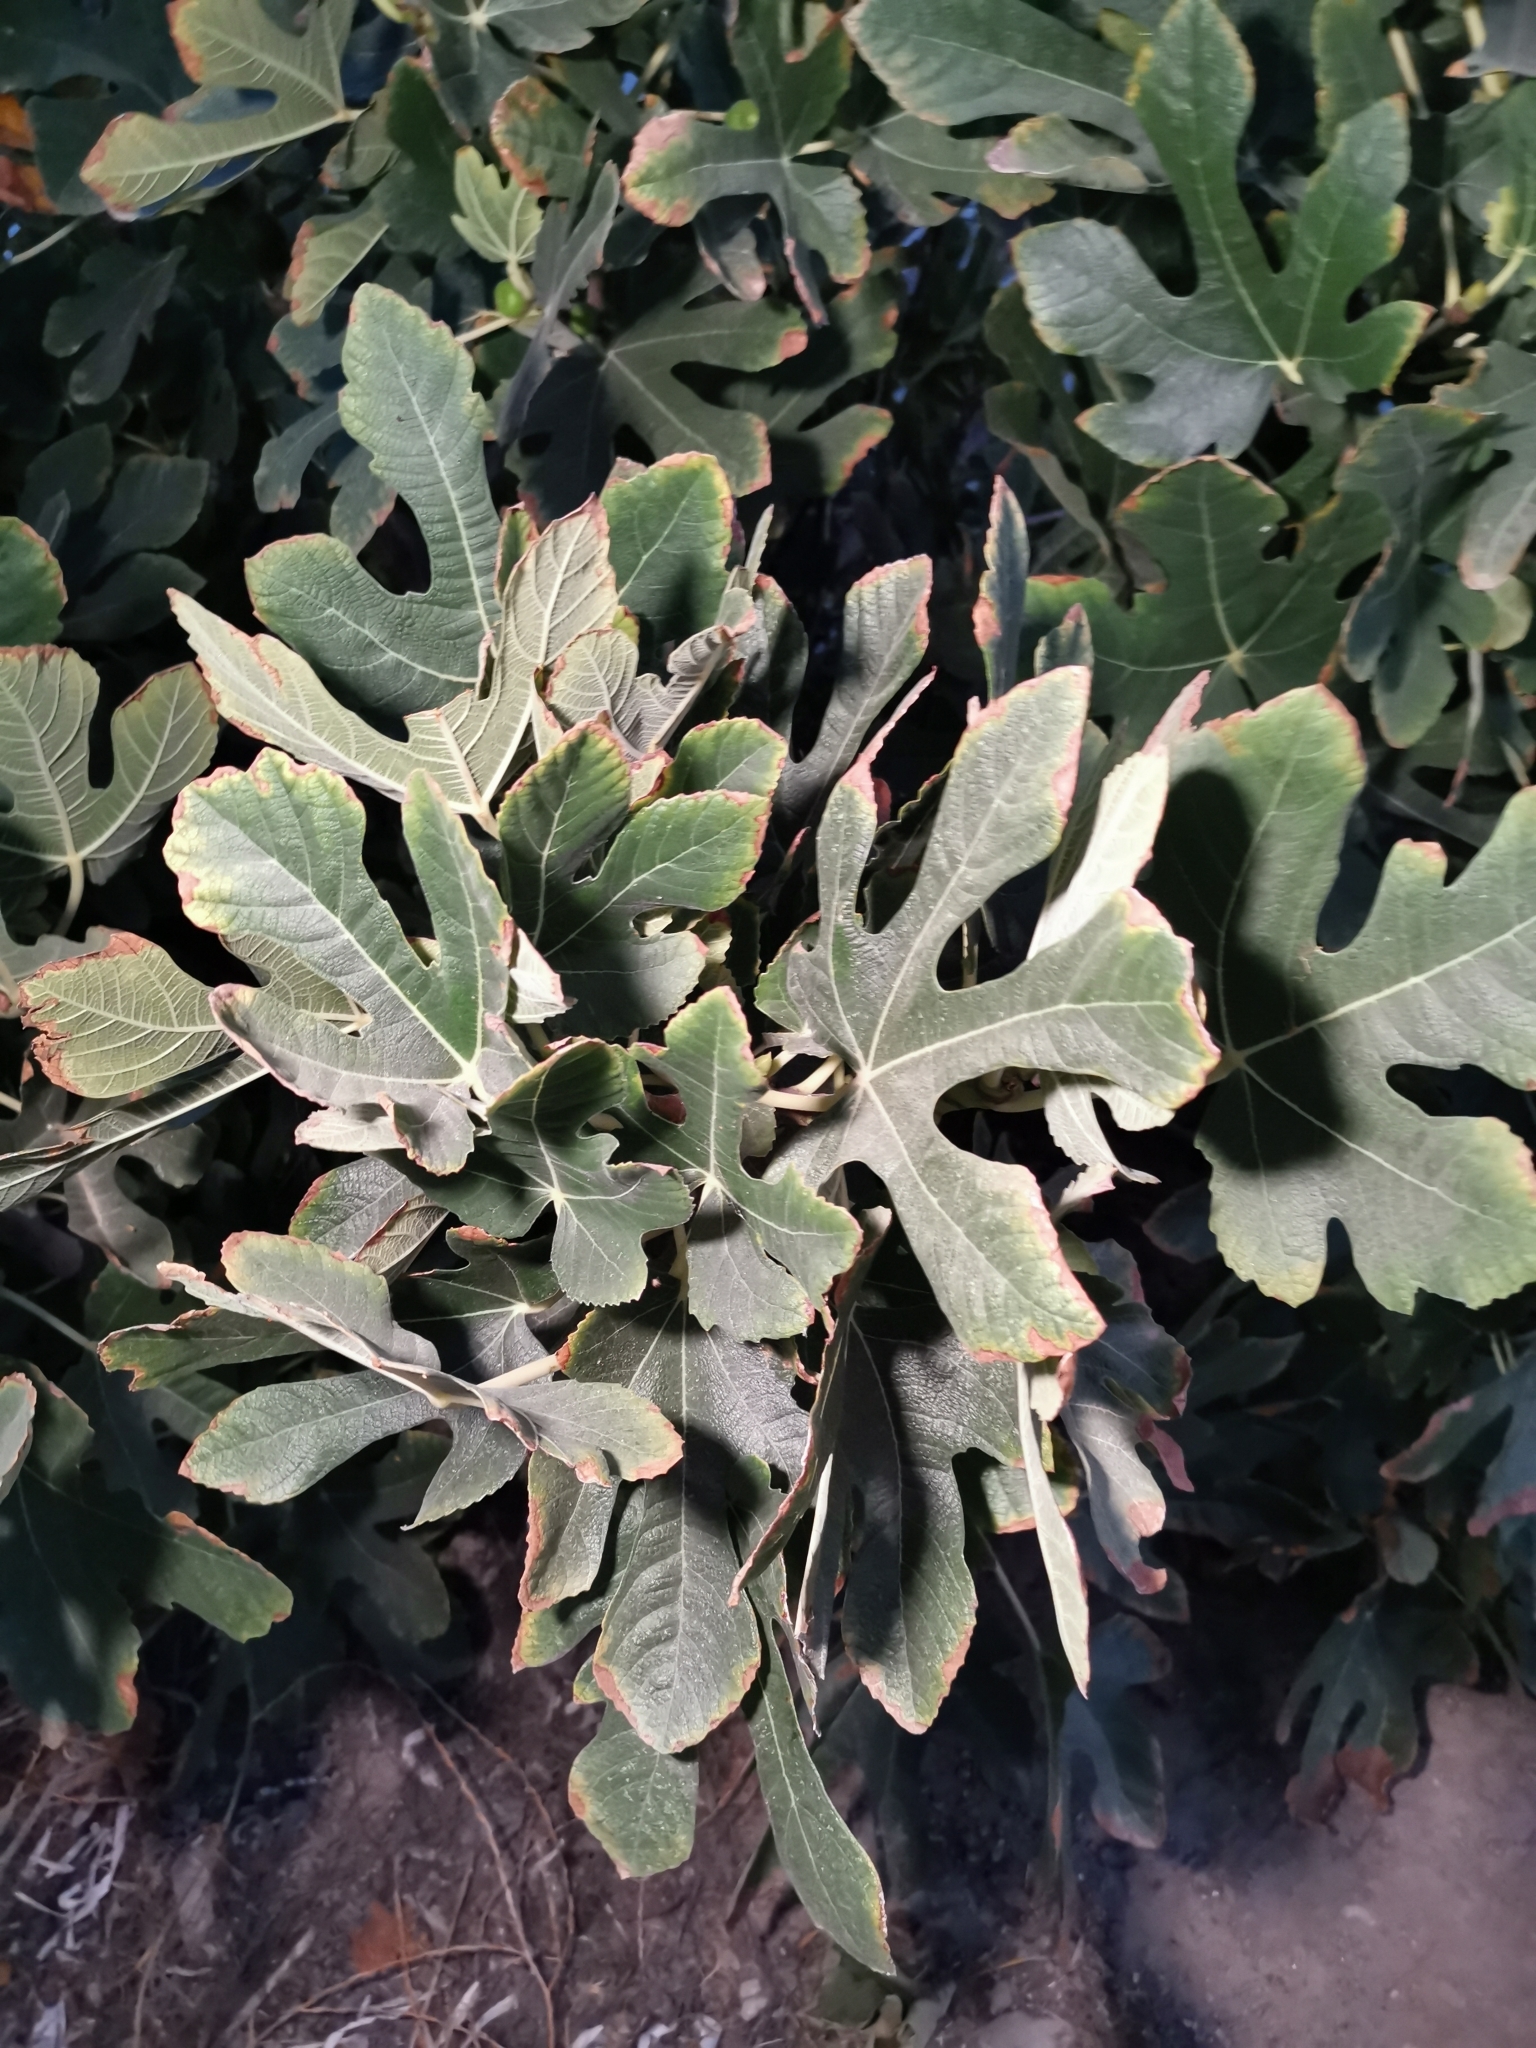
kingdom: Plantae
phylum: Tracheophyta
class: Magnoliopsida
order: Rosales
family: Moraceae
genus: Ficus
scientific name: Ficus carica
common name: Fig
